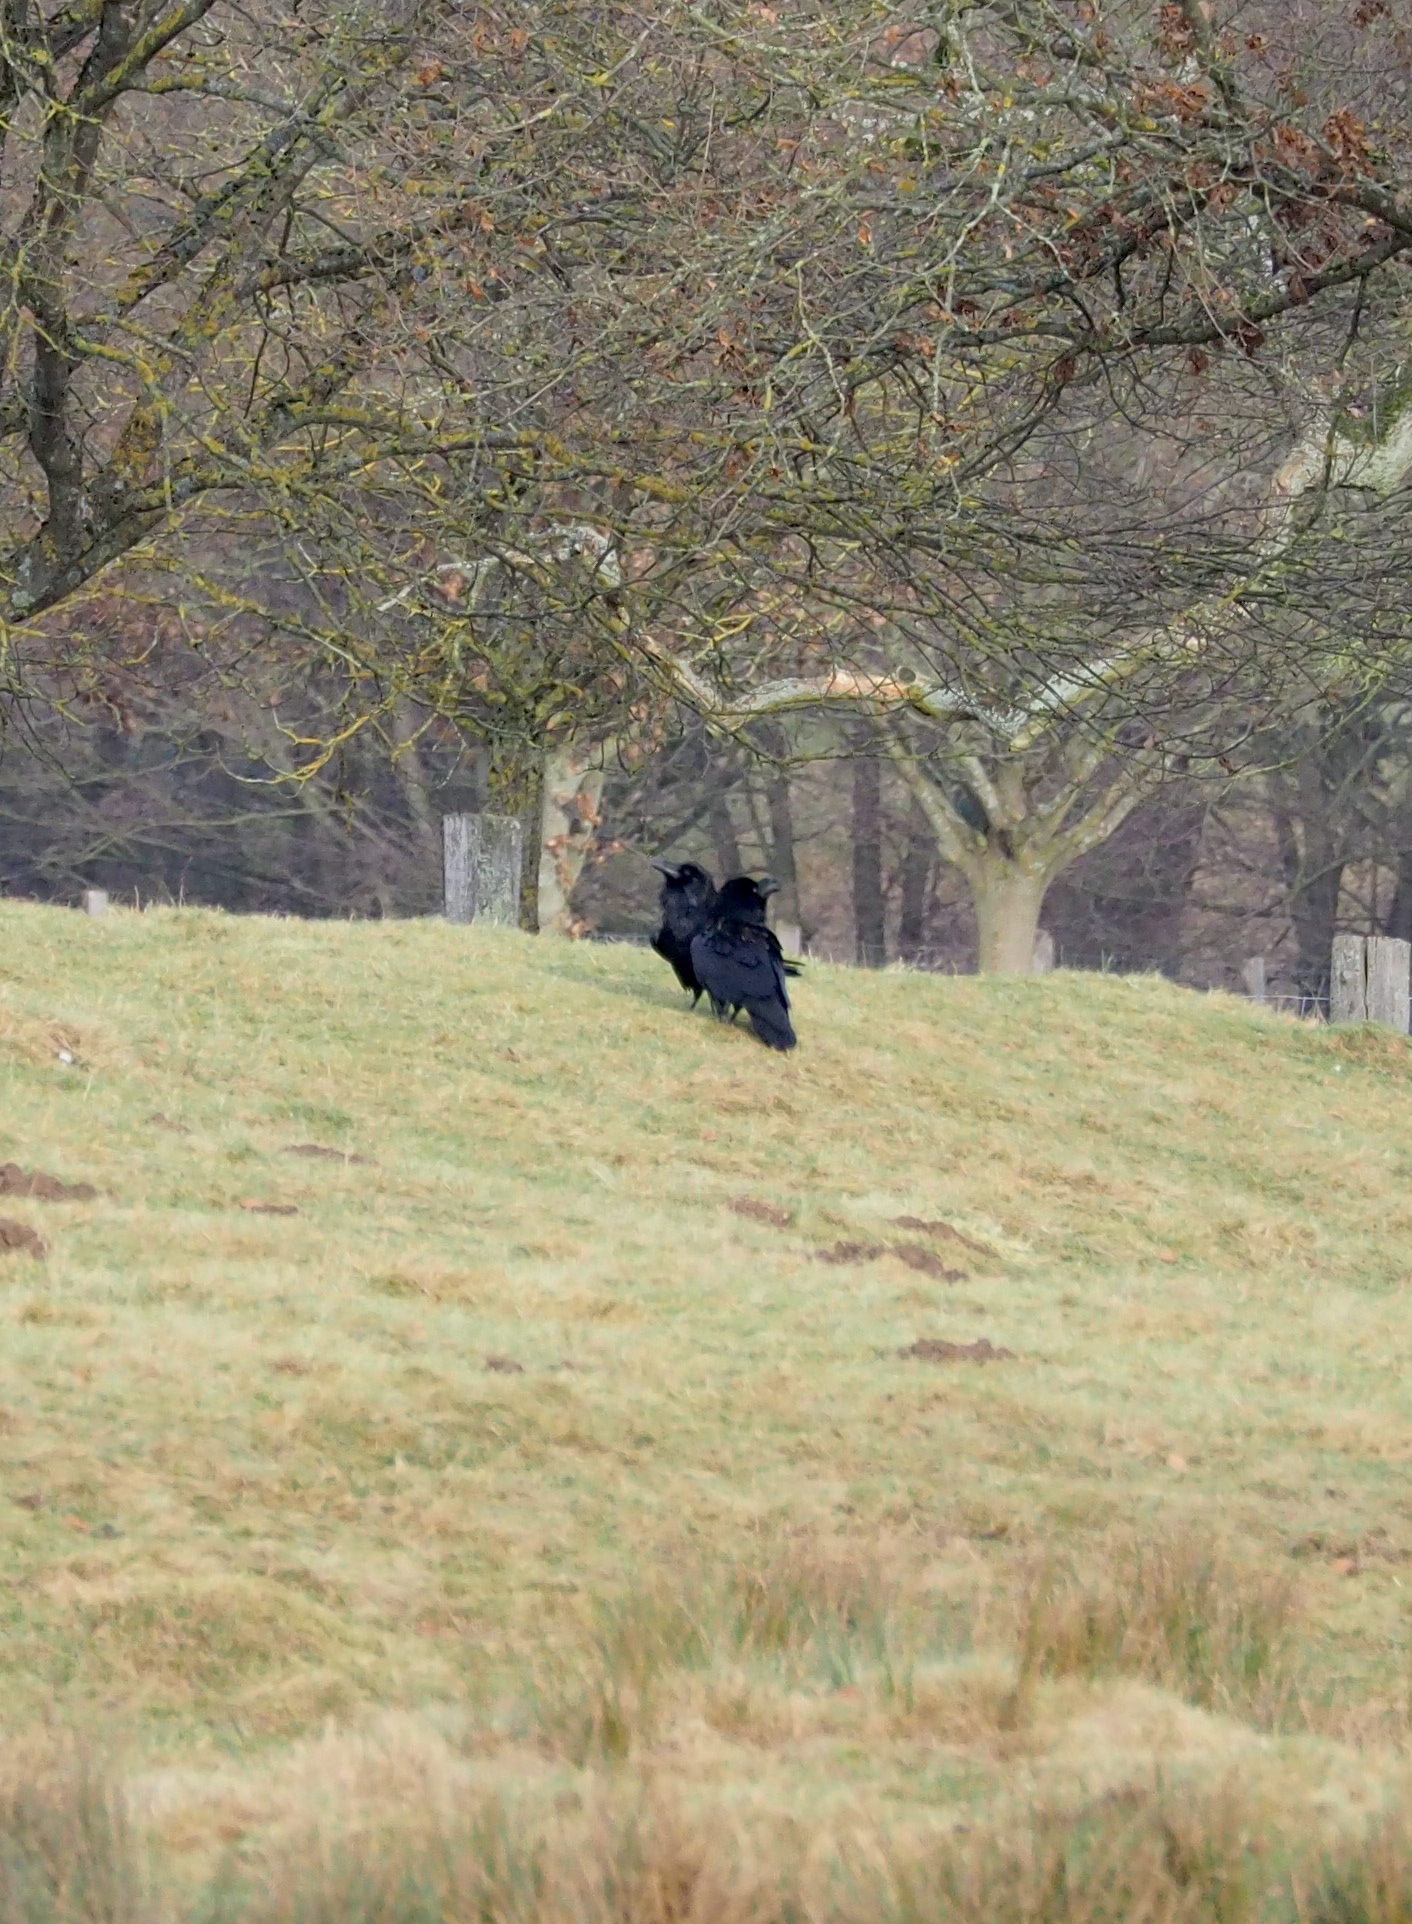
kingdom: Animalia
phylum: Chordata
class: Aves
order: Passeriformes
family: Corvidae
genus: Corvus
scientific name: Corvus corax
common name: Common raven
